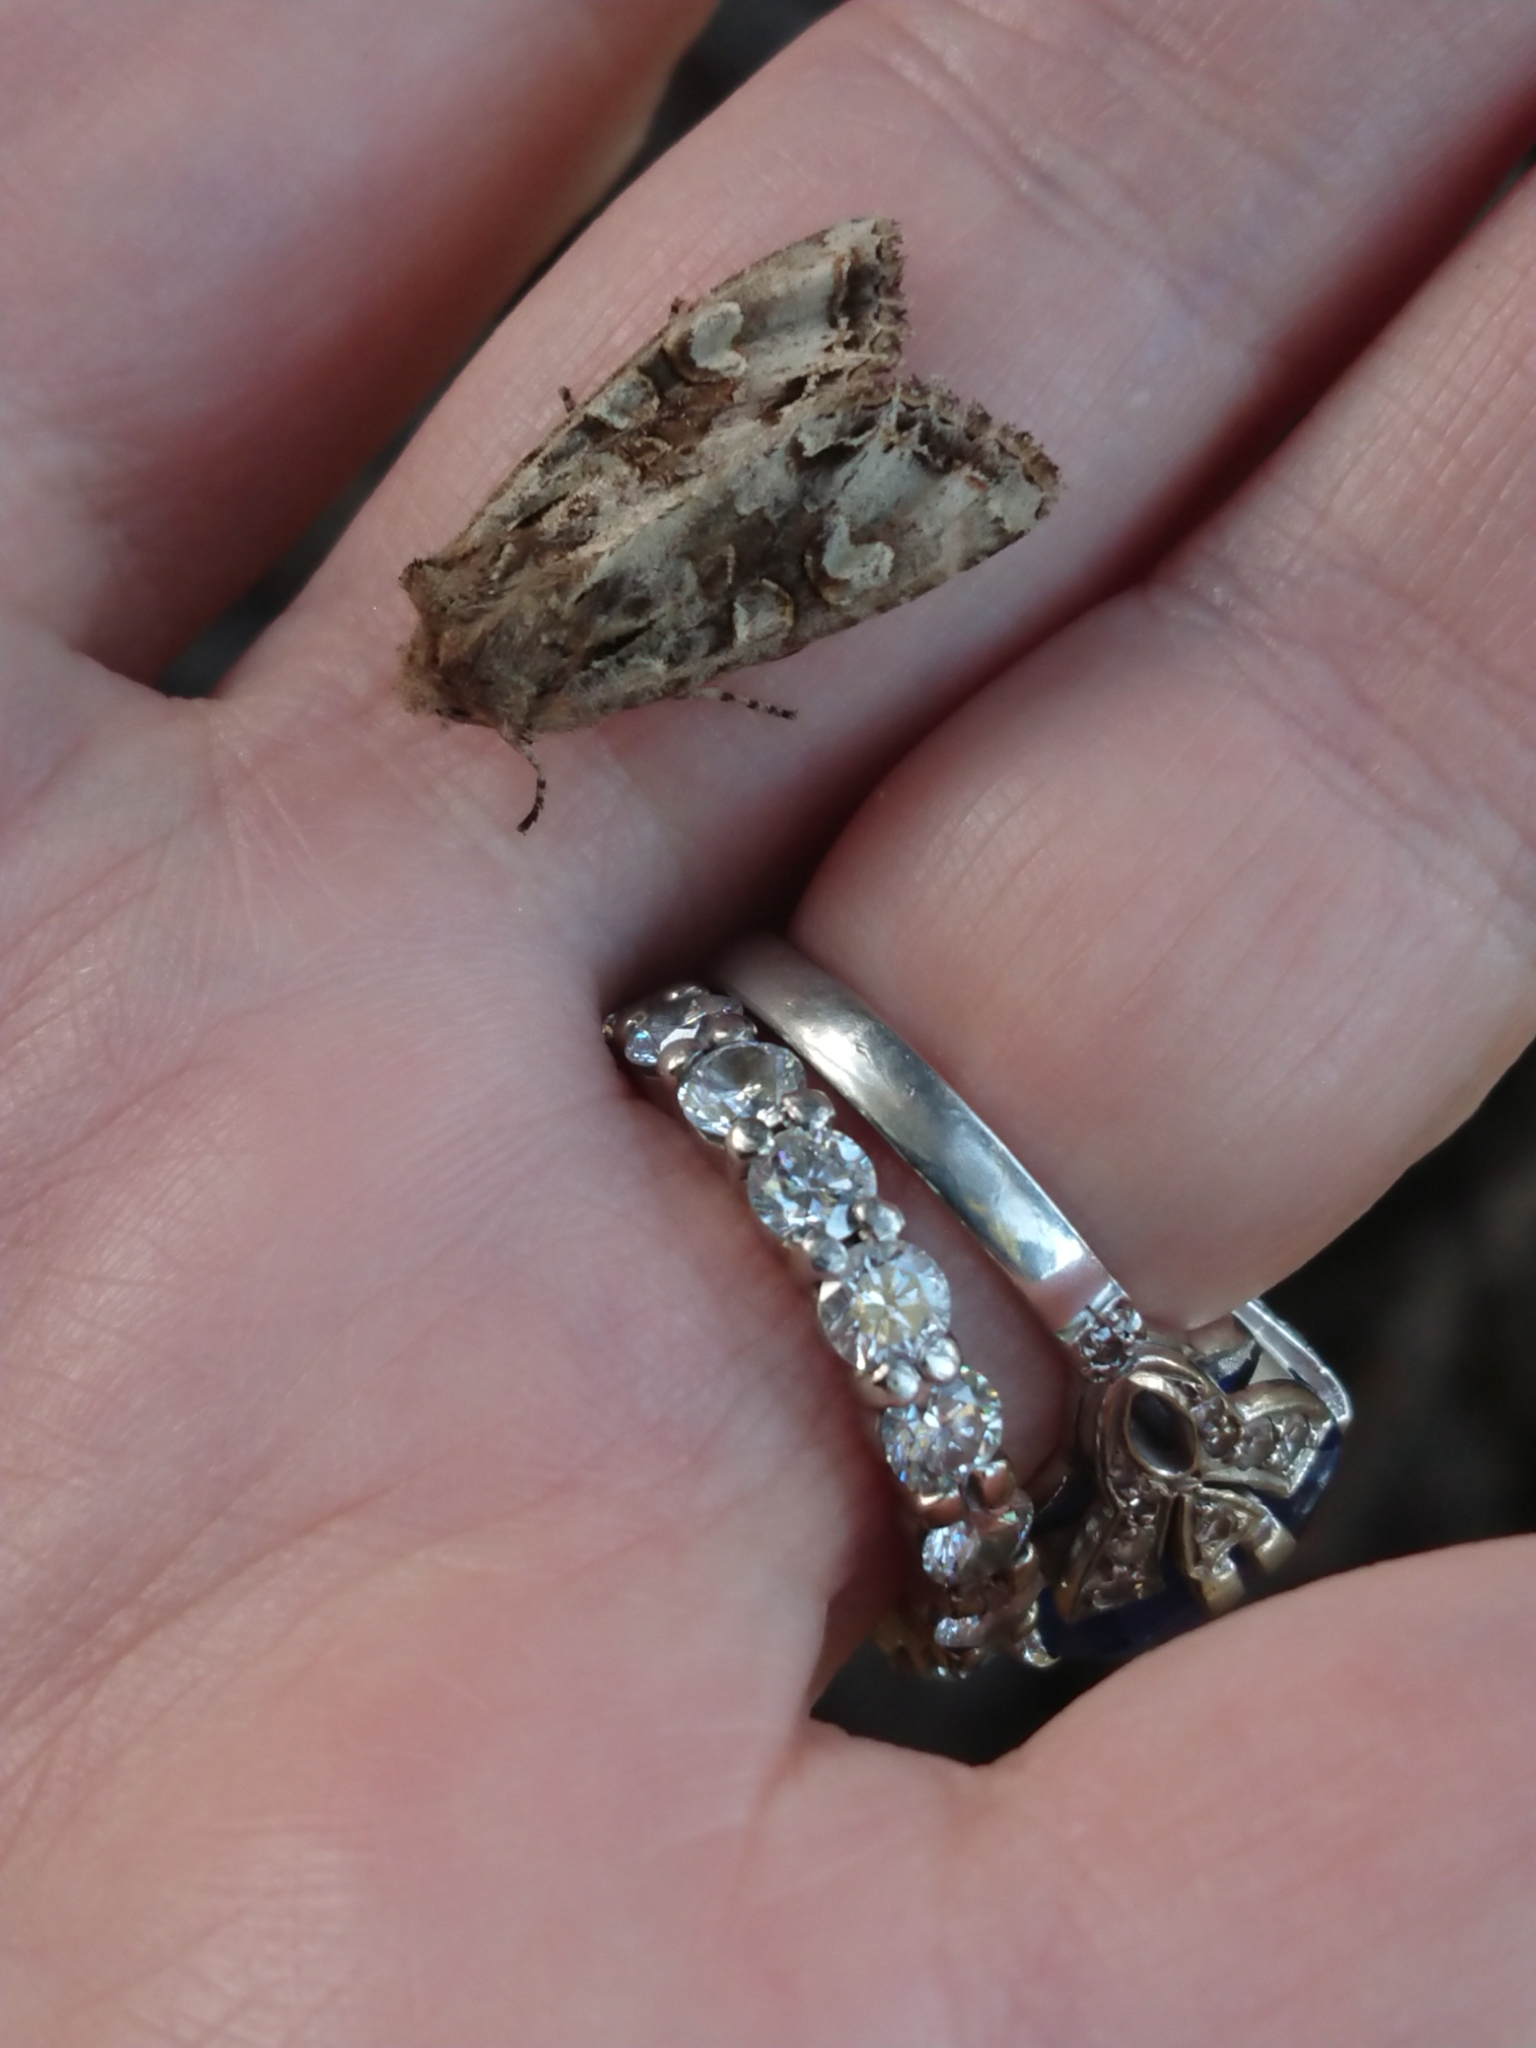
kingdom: Animalia
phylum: Arthropoda
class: Insecta
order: Lepidoptera
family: Noctuidae
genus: Ichneutica
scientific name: Ichneutica
